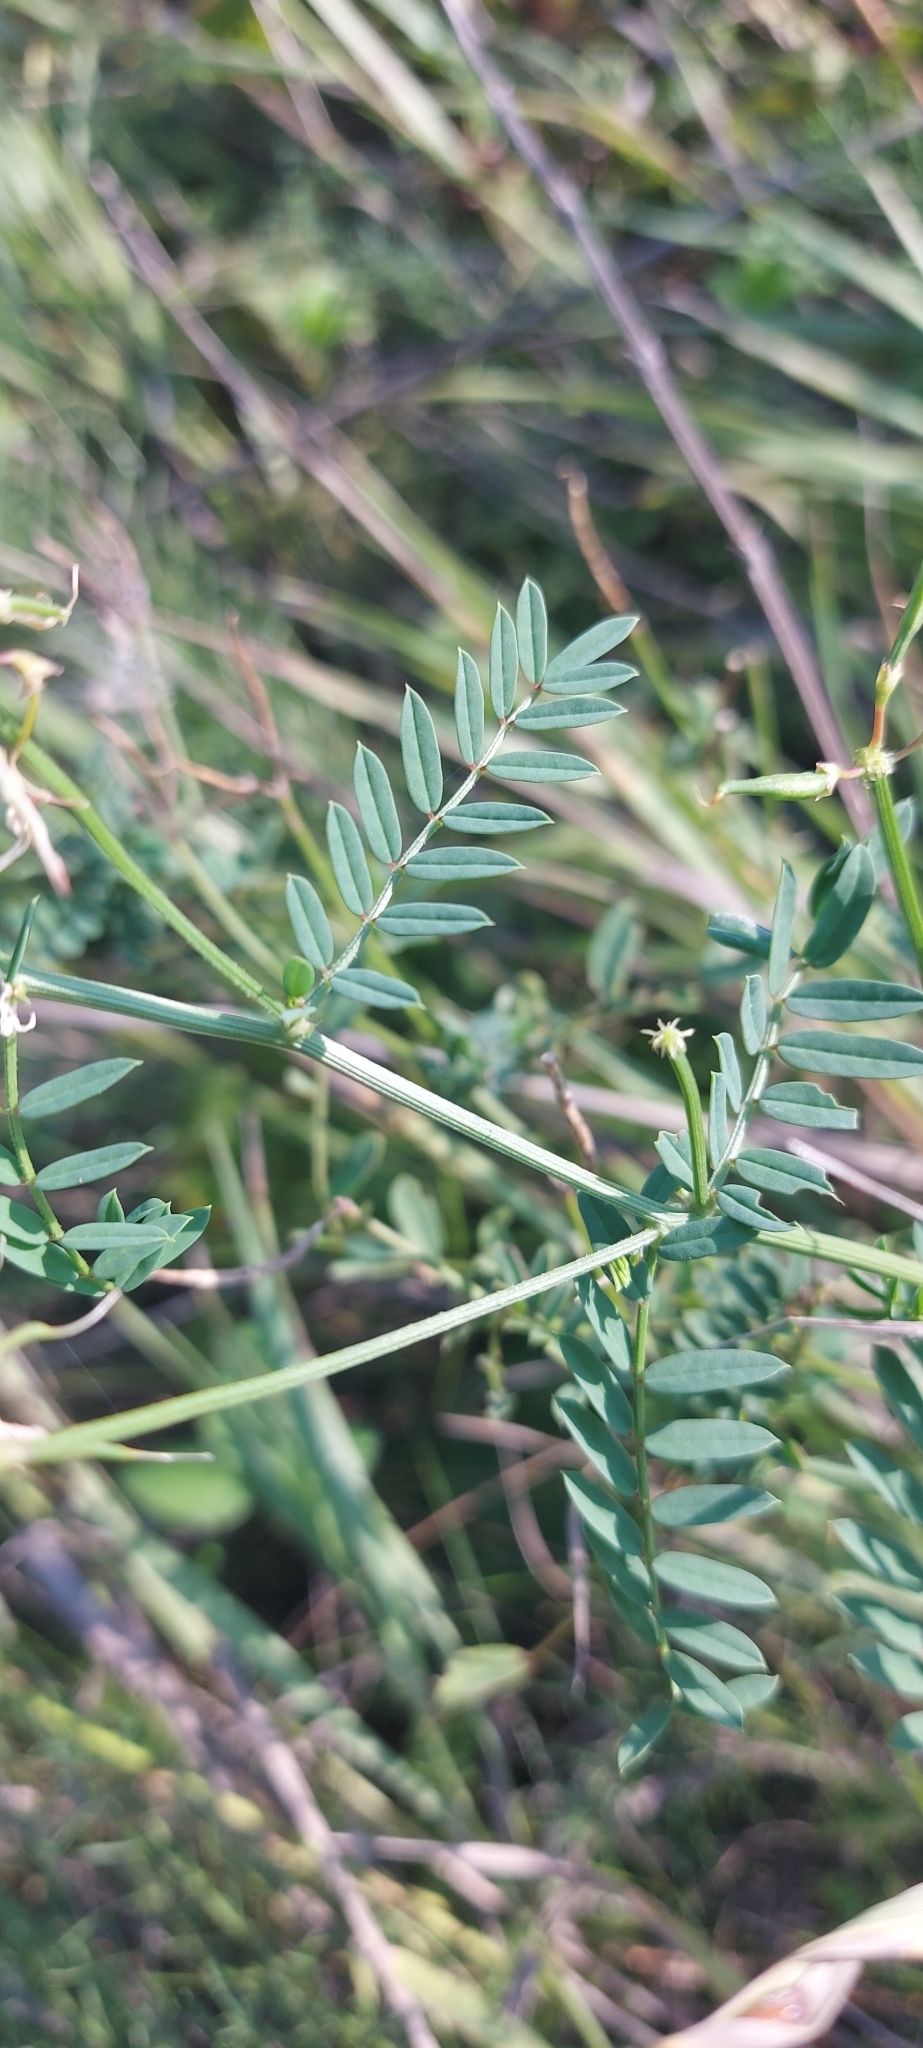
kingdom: Plantae
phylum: Tracheophyta
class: Magnoliopsida
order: Fabales
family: Fabaceae
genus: Coronilla
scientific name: Coronilla varia
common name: Crownvetch
